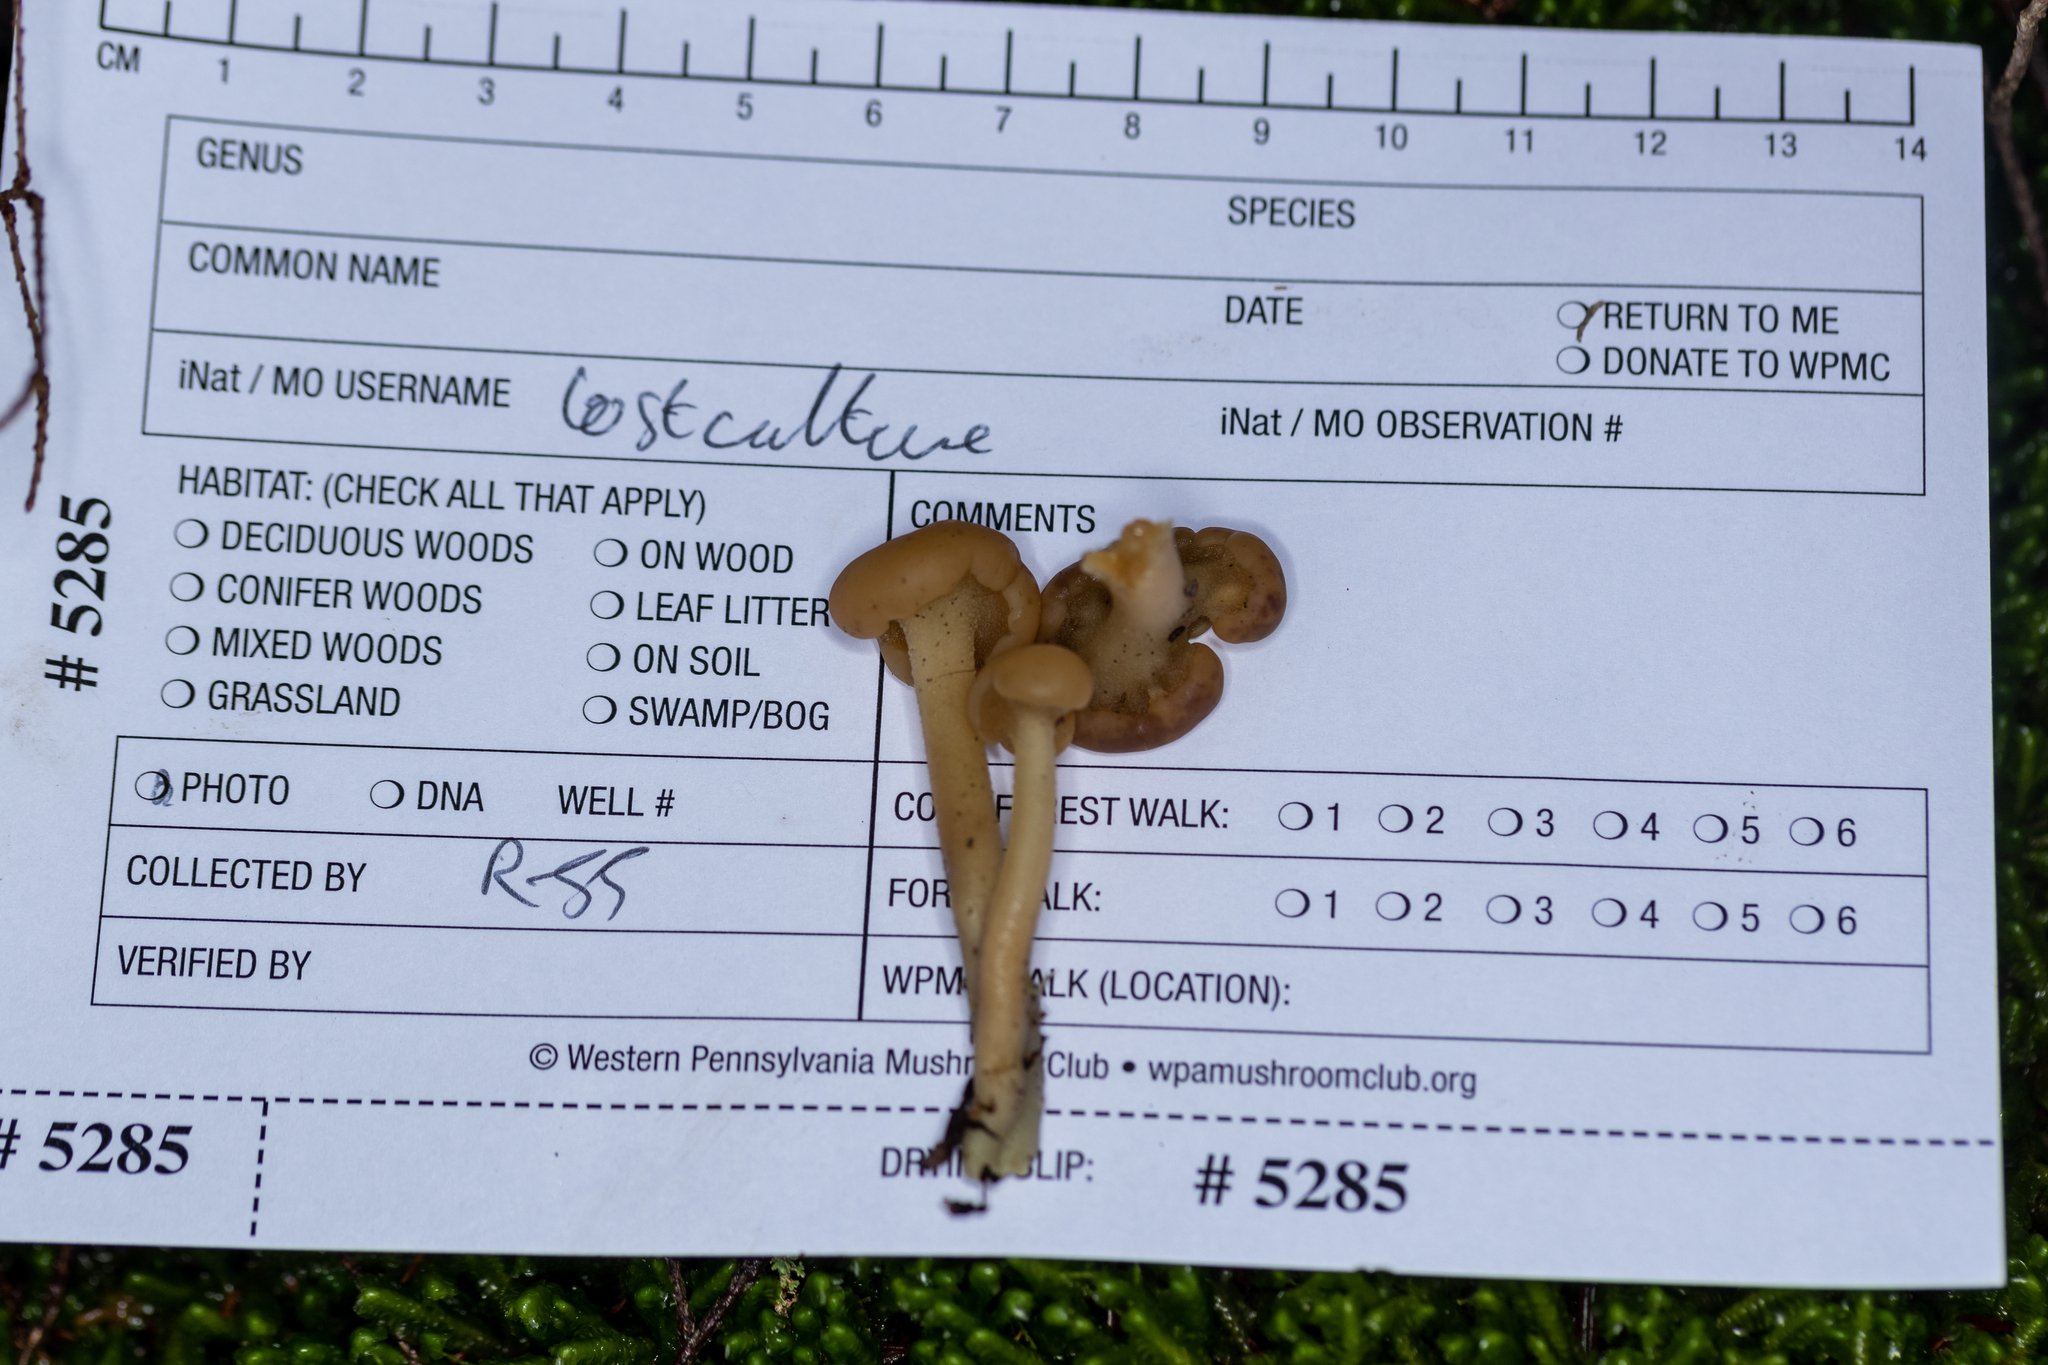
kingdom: Fungi
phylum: Ascomycota
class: Leotiomycetes
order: Leotiales
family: Leotiaceae
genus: Leotia
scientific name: Leotia lubrica
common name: Jellybaby
